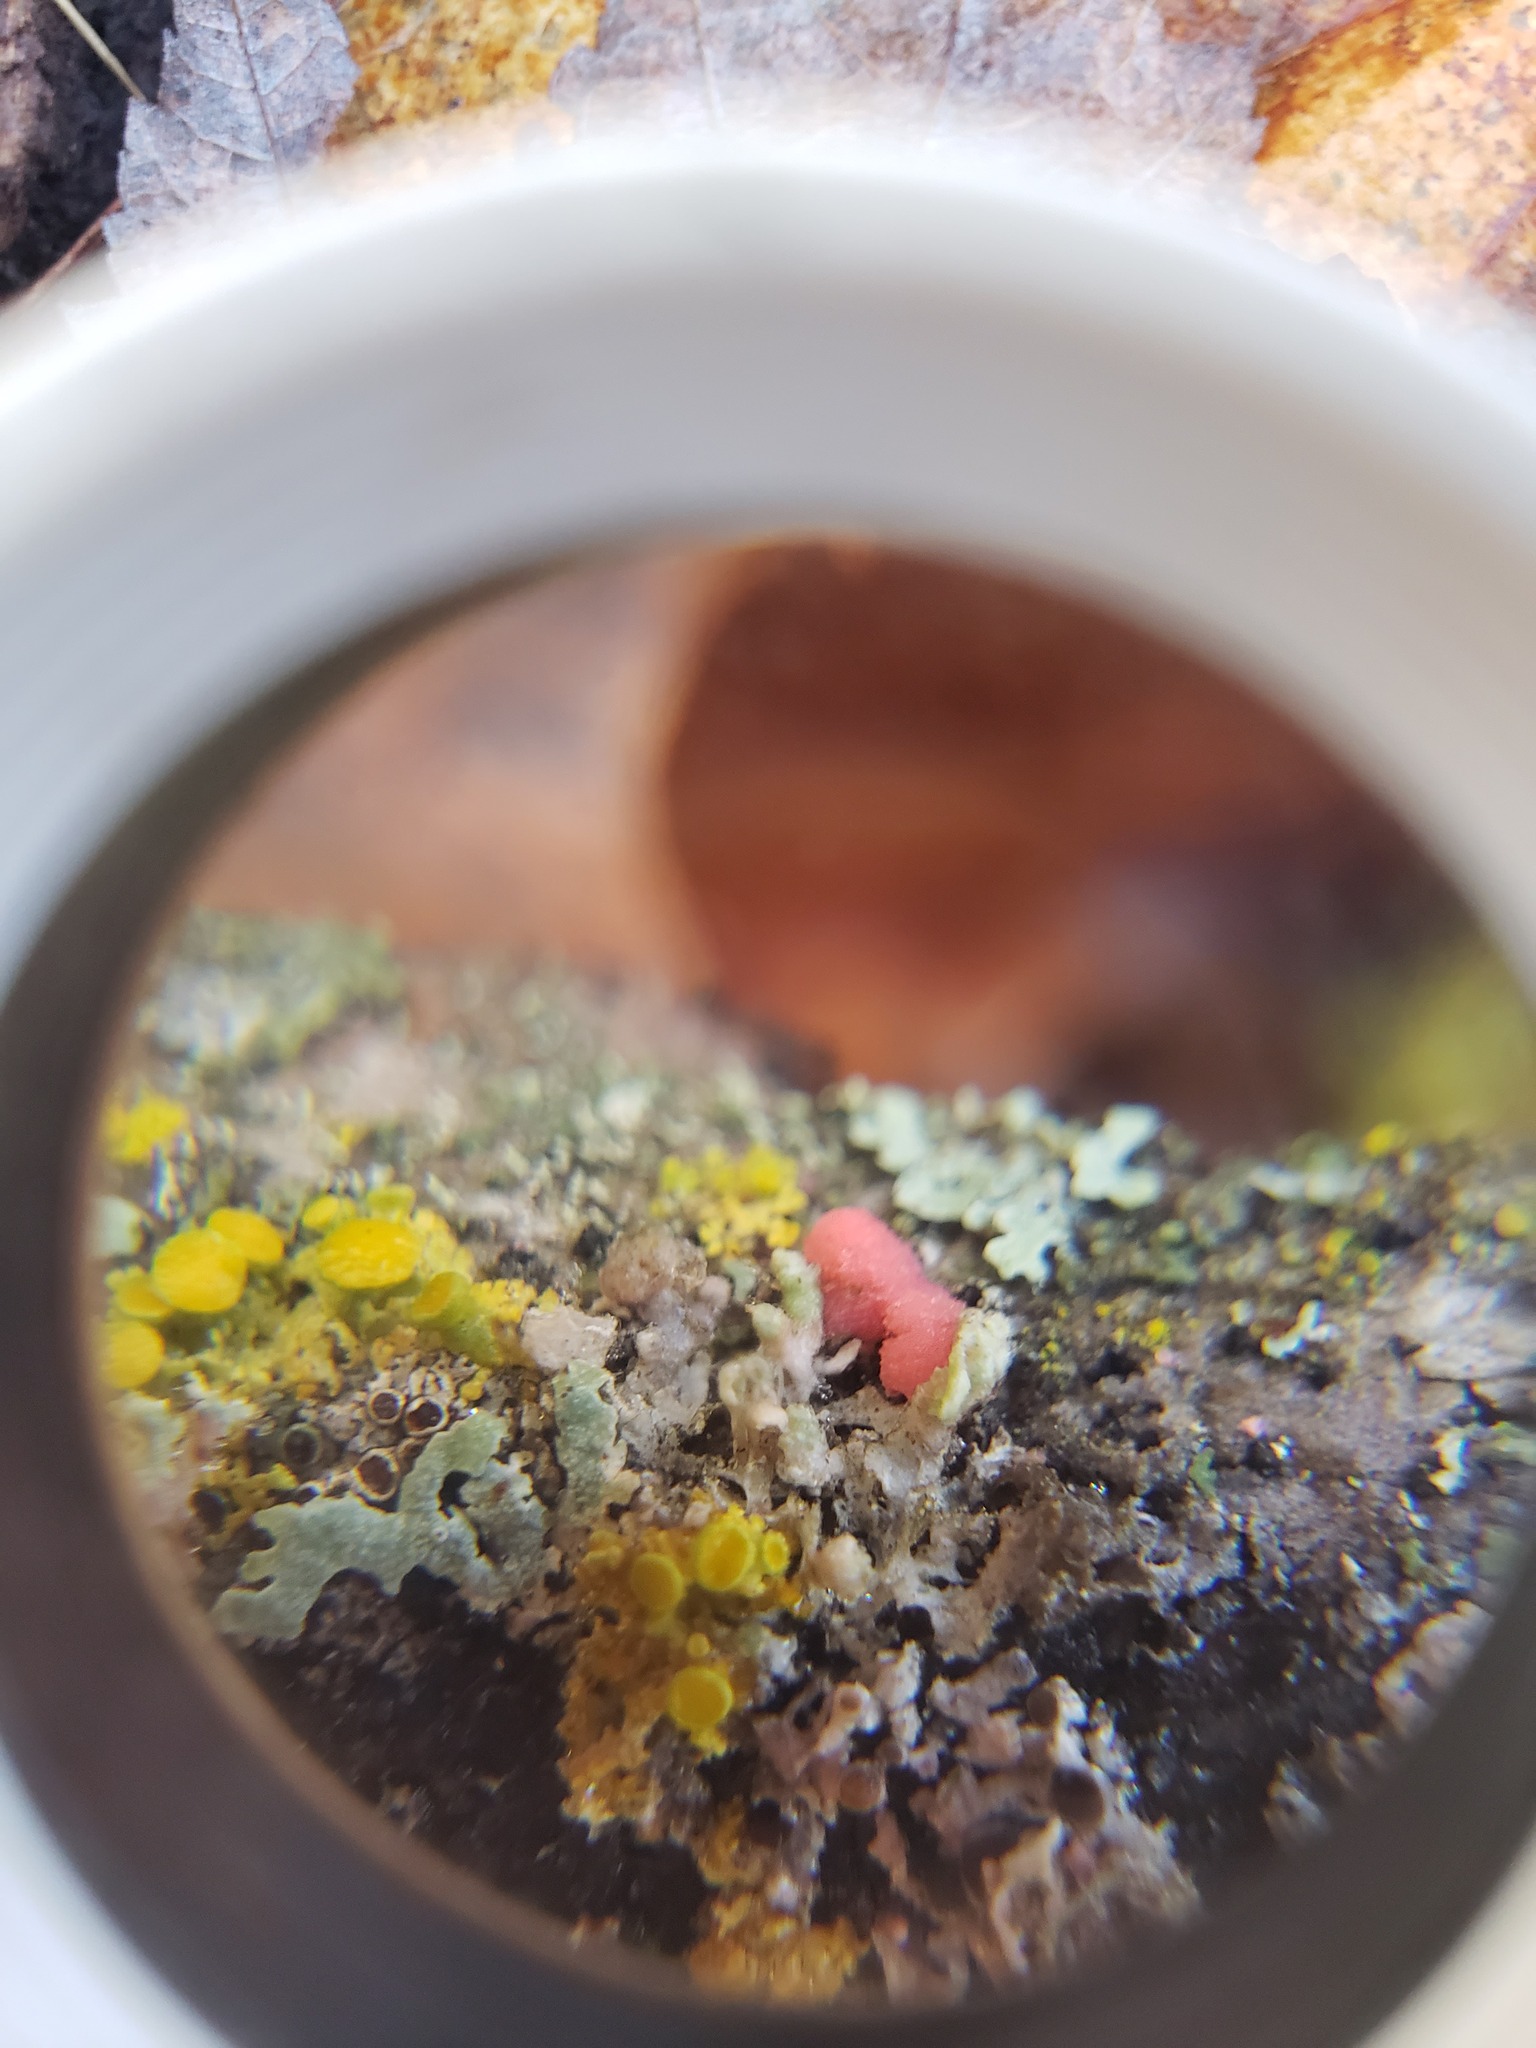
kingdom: Fungi
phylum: Ascomycota
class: Sordariomycetes
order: Hypocreales
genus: Illosporiopsis
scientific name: Illosporiopsis christiansenii
